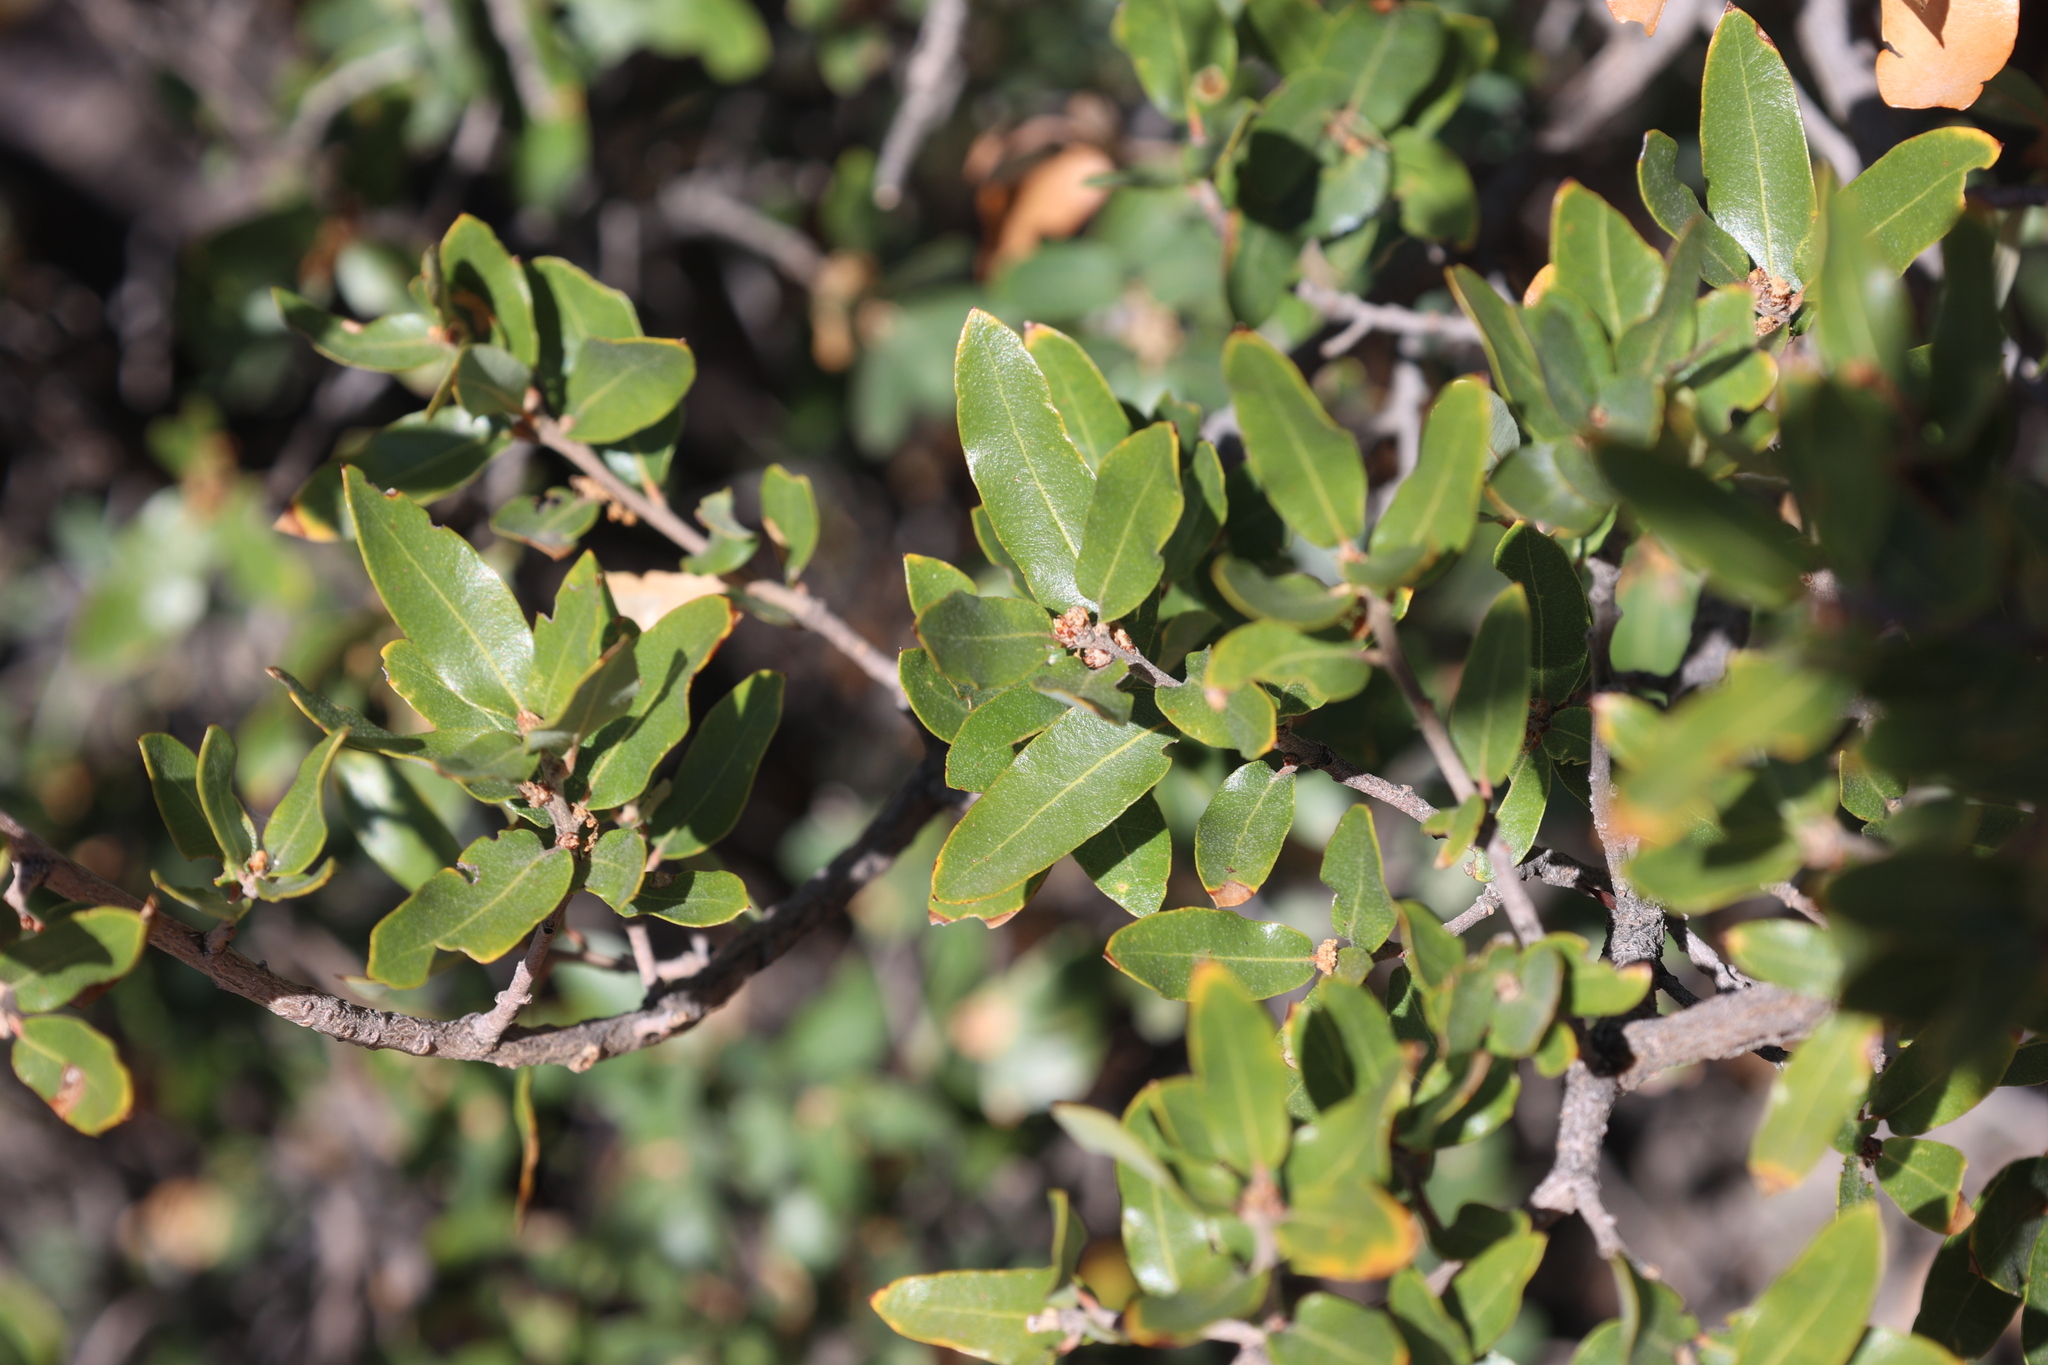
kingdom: Plantae
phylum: Tracheophyta
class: Magnoliopsida
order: Fagales
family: Fagaceae
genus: Quercus
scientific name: Quercus toumeyi
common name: Toumey oak
